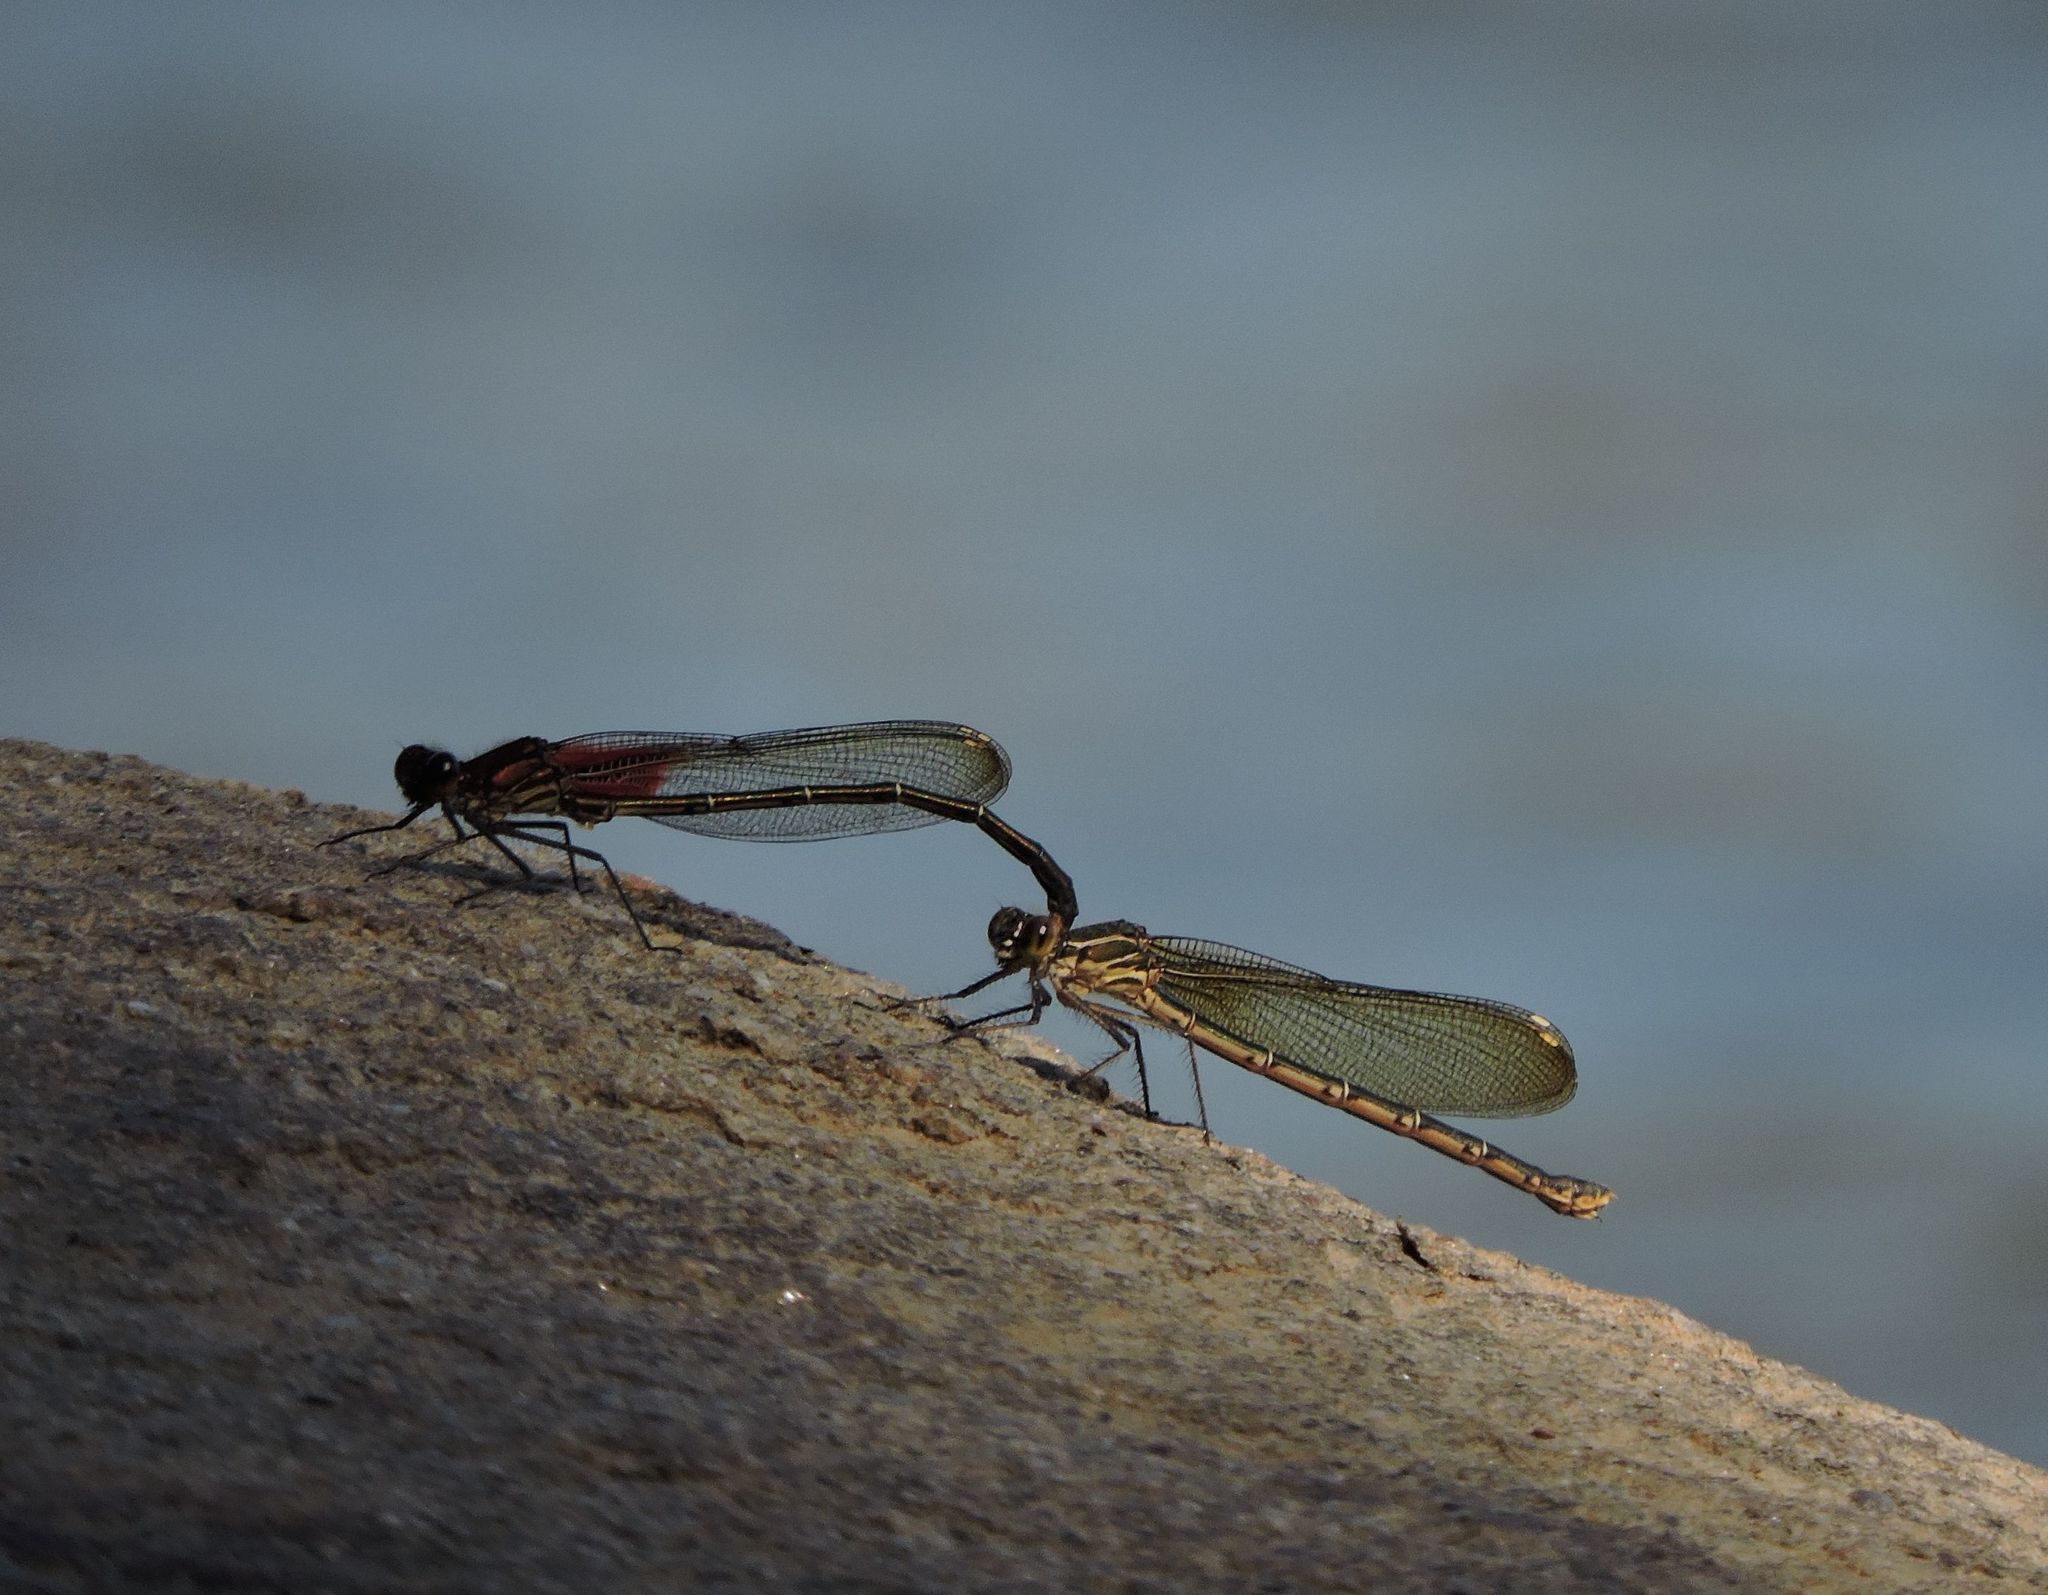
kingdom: Animalia
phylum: Arthropoda
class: Insecta
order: Odonata
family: Calopterygidae
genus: Hetaerina
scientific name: Hetaerina americana
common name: American rubyspot
